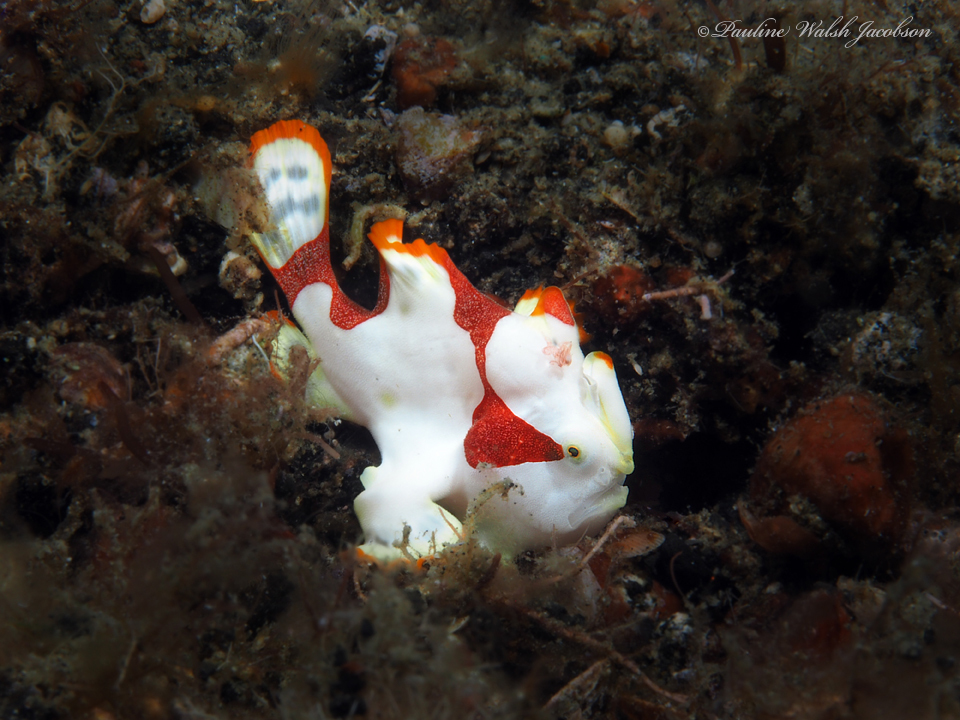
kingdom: Animalia
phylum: Chordata
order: Lophiiformes
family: Antennariidae
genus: Antennarius
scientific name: Antennarius maculatus
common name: Warty frogfish
